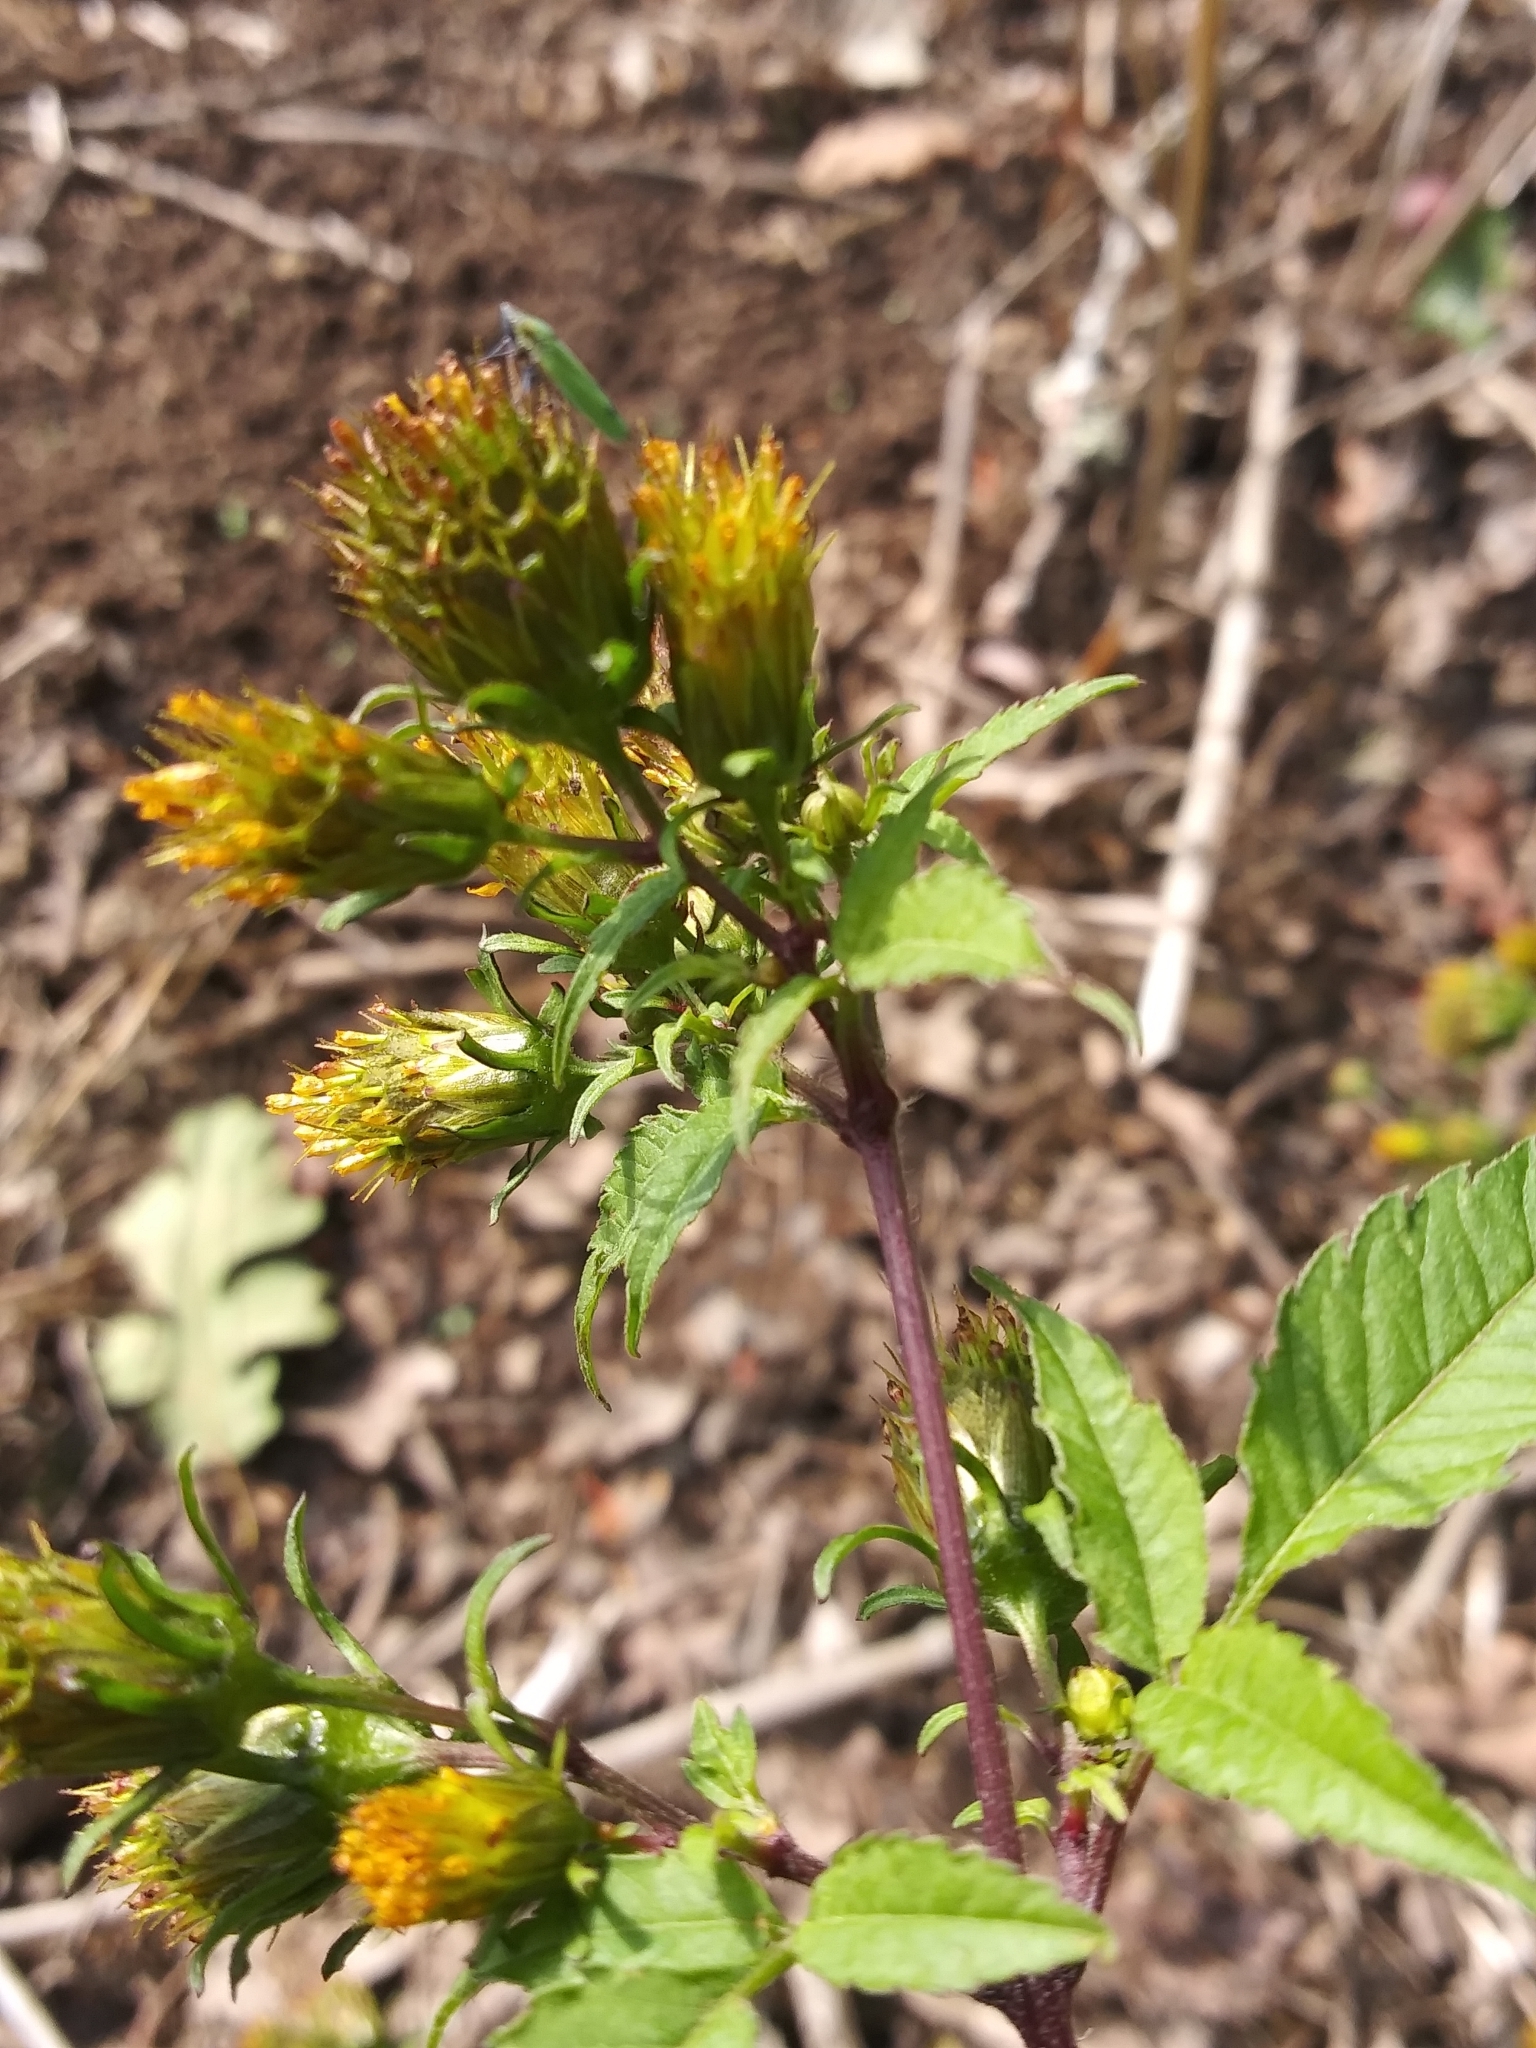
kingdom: Plantae
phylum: Tracheophyta
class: Magnoliopsida
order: Asterales
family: Asteraceae
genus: Bidens
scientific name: Bidens frondosa
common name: Beggarticks
